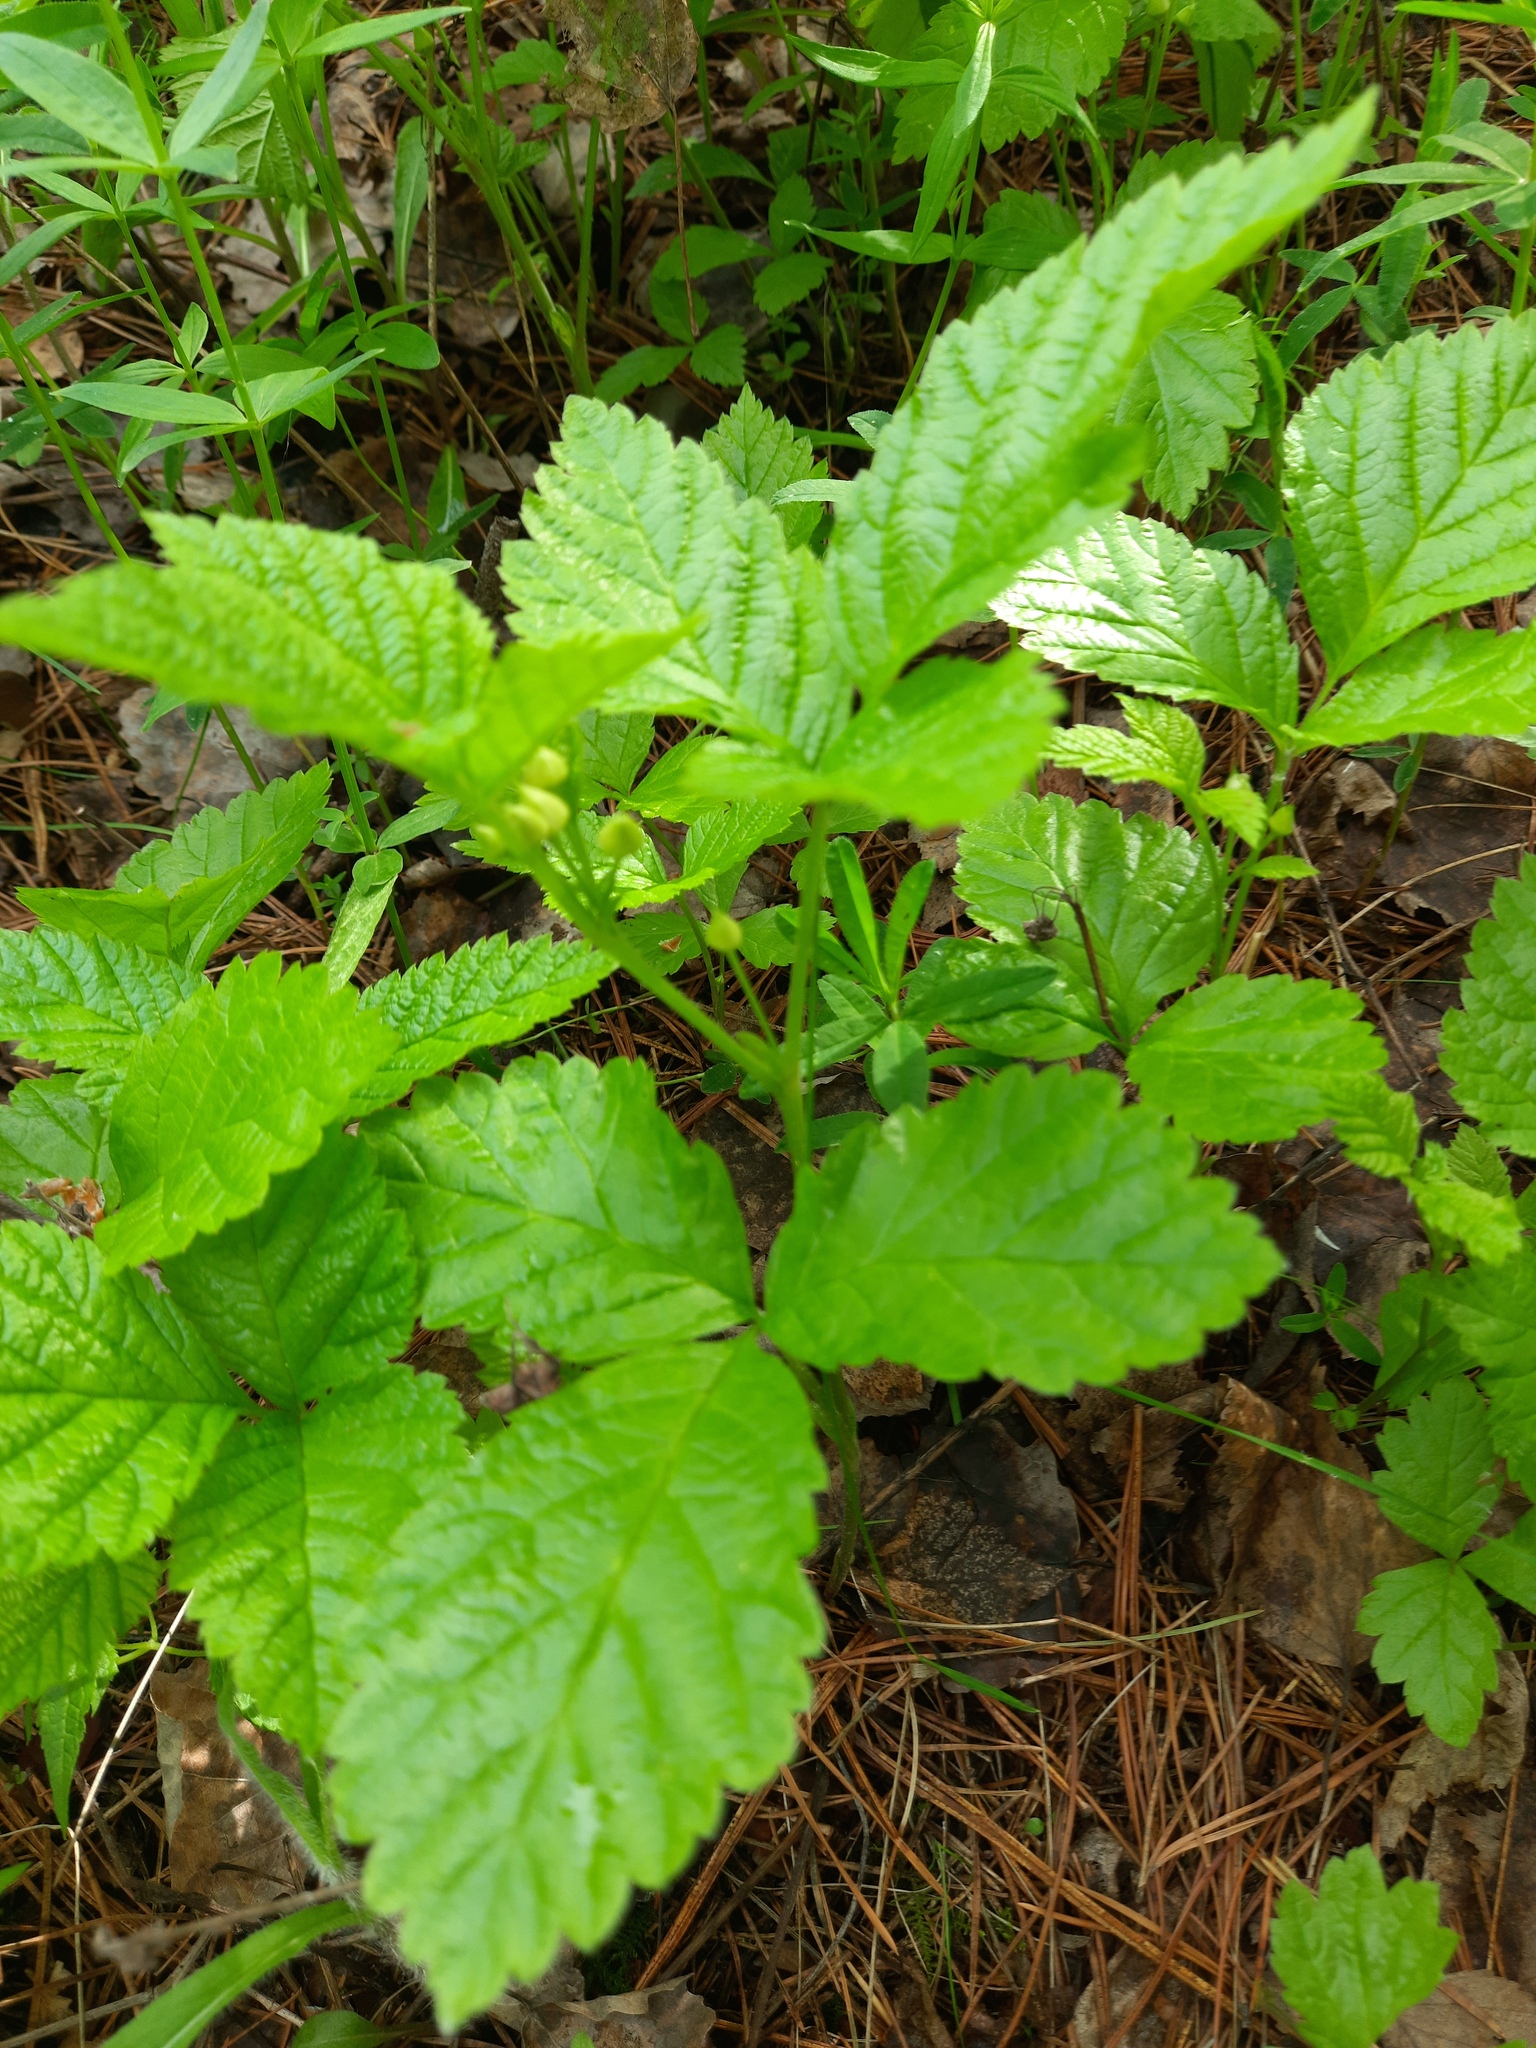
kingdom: Plantae
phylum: Tracheophyta
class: Magnoliopsida
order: Rosales
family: Rosaceae
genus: Rubus
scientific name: Rubus saxatilis
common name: Stone bramble
